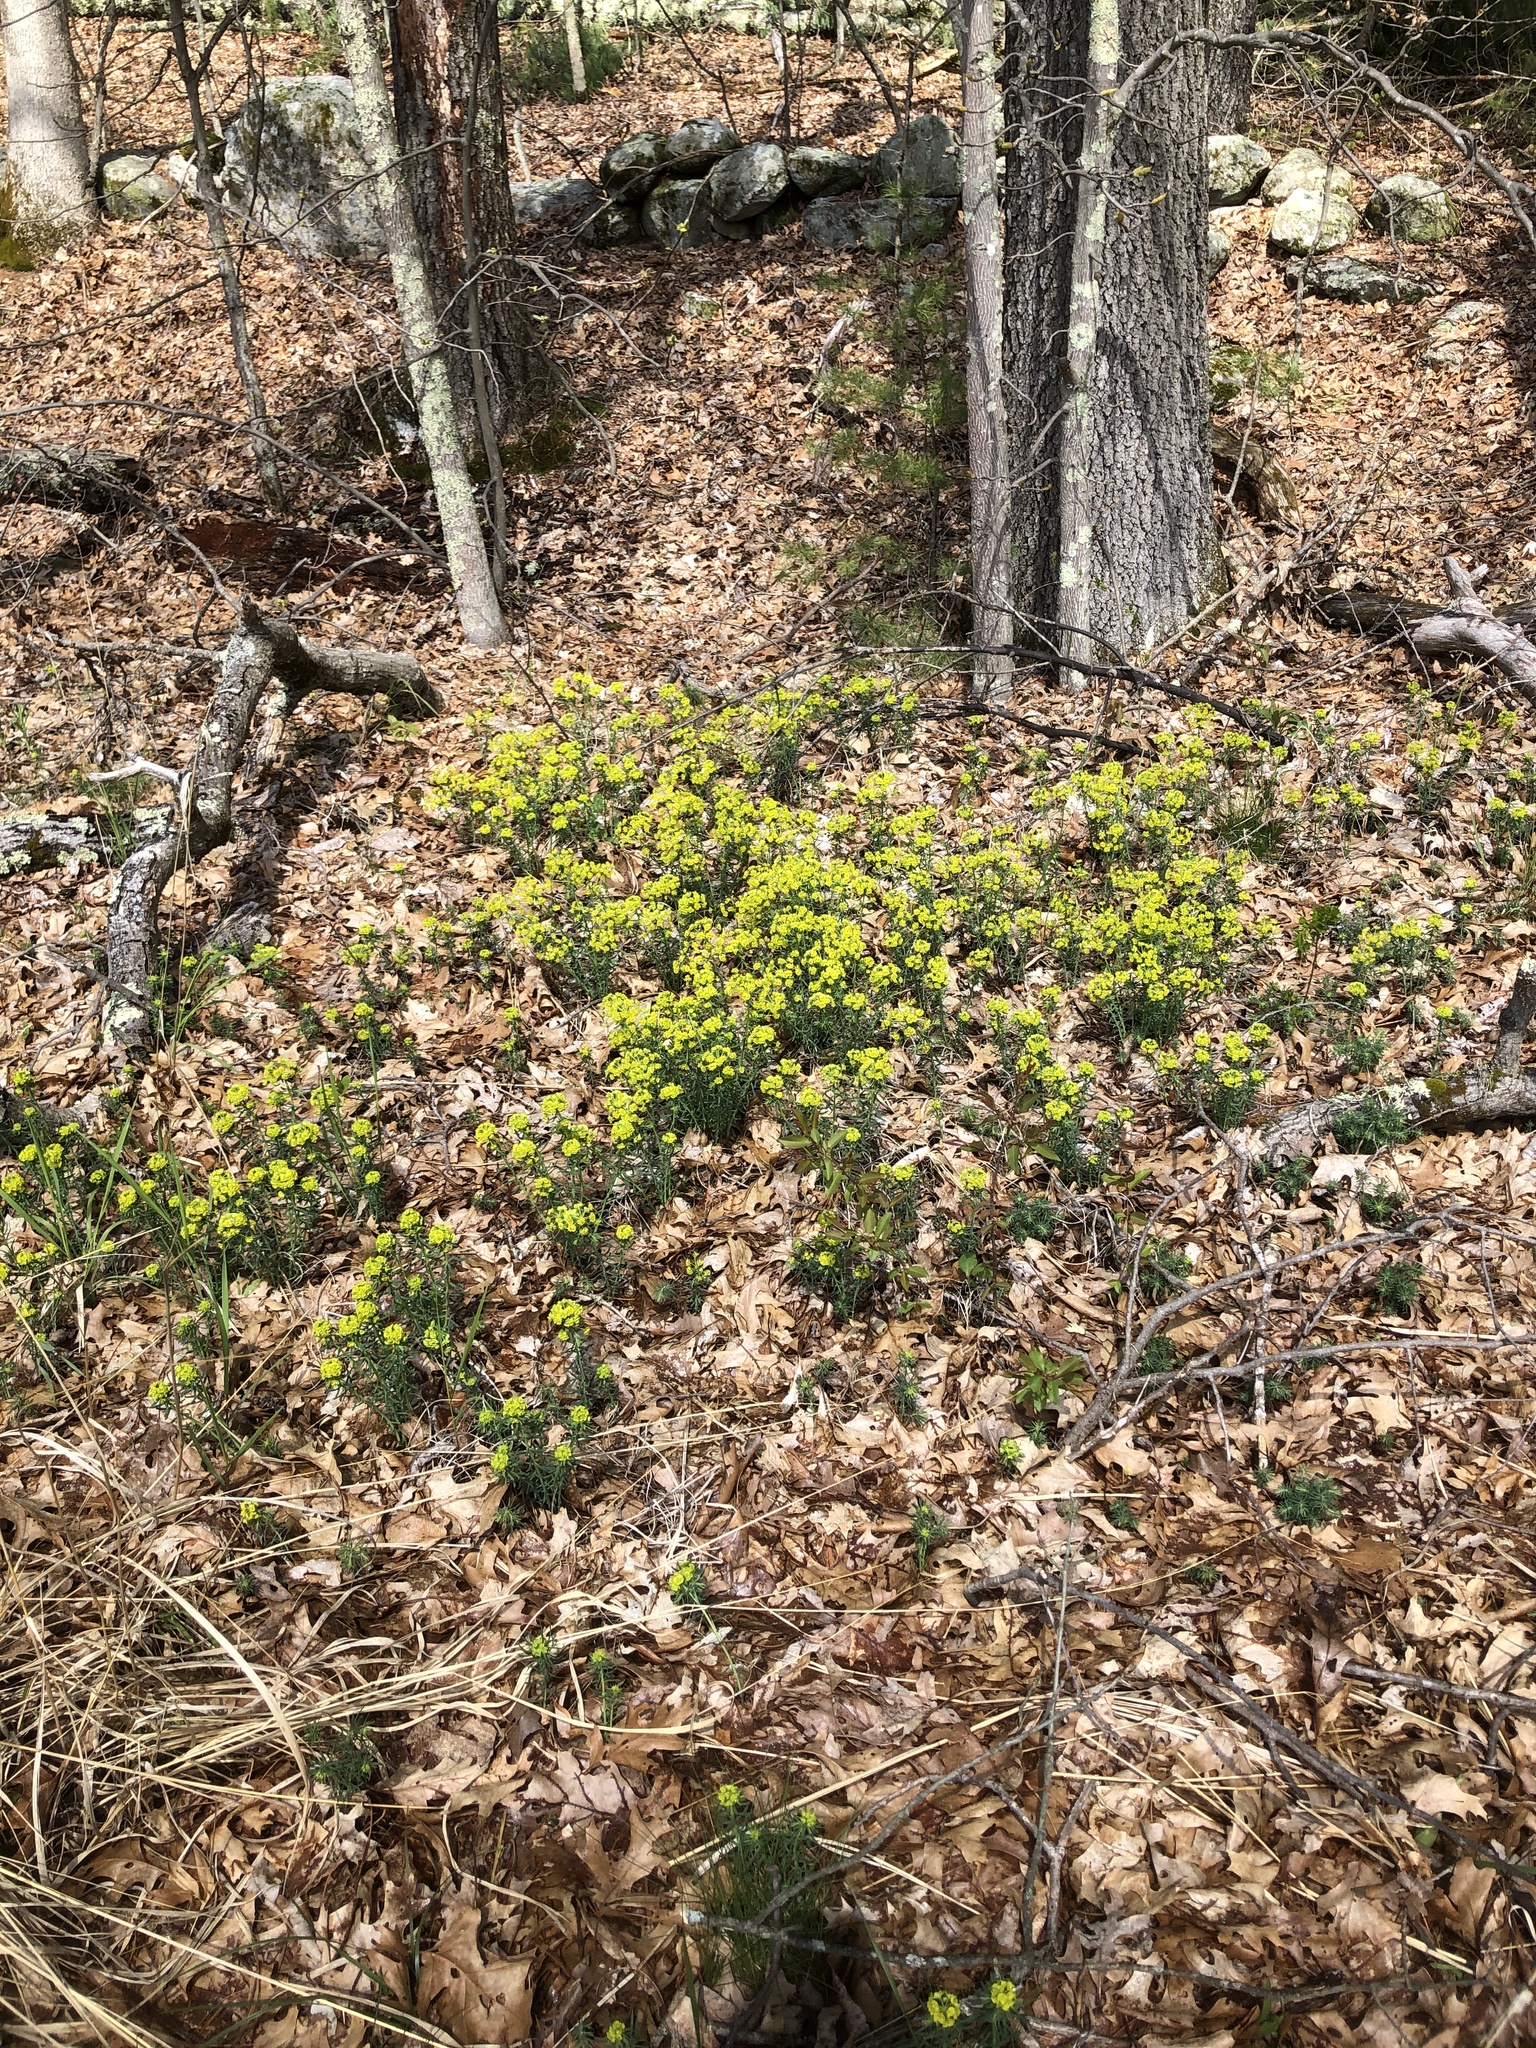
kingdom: Plantae
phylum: Tracheophyta
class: Magnoliopsida
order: Malpighiales
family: Euphorbiaceae
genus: Euphorbia
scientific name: Euphorbia cyparissias
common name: Cypress spurge
